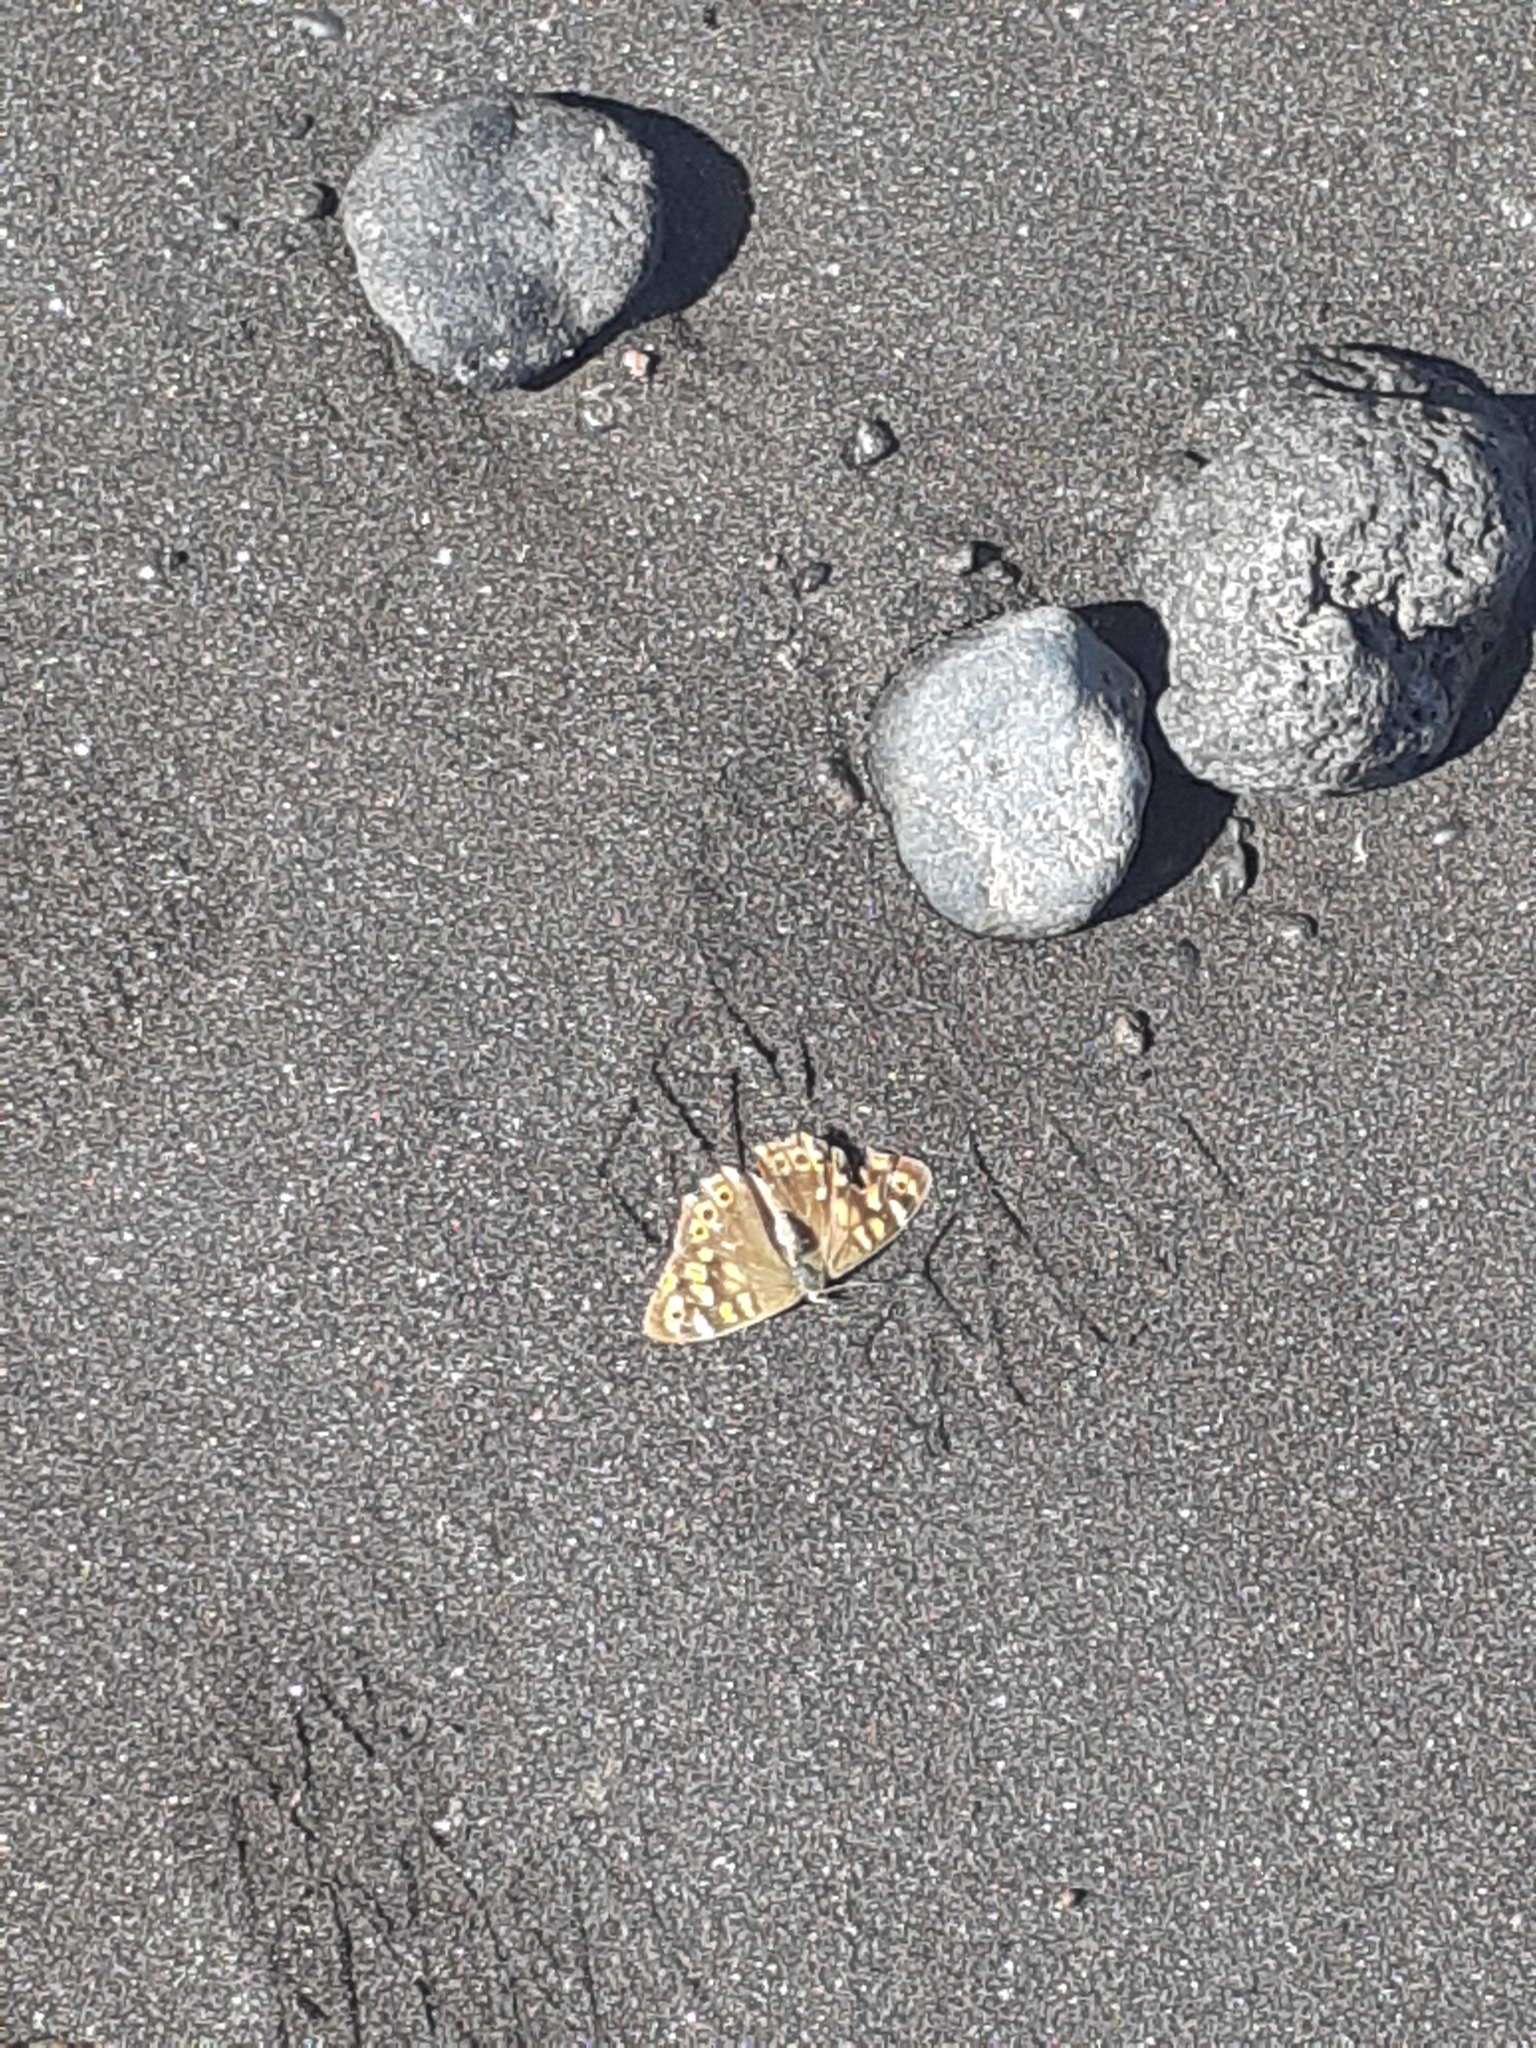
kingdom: Animalia
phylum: Arthropoda
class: Insecta
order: Lepidoptera
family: Nymphalidae
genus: Pararge
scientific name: Pararge aegeria
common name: Speckled wood
